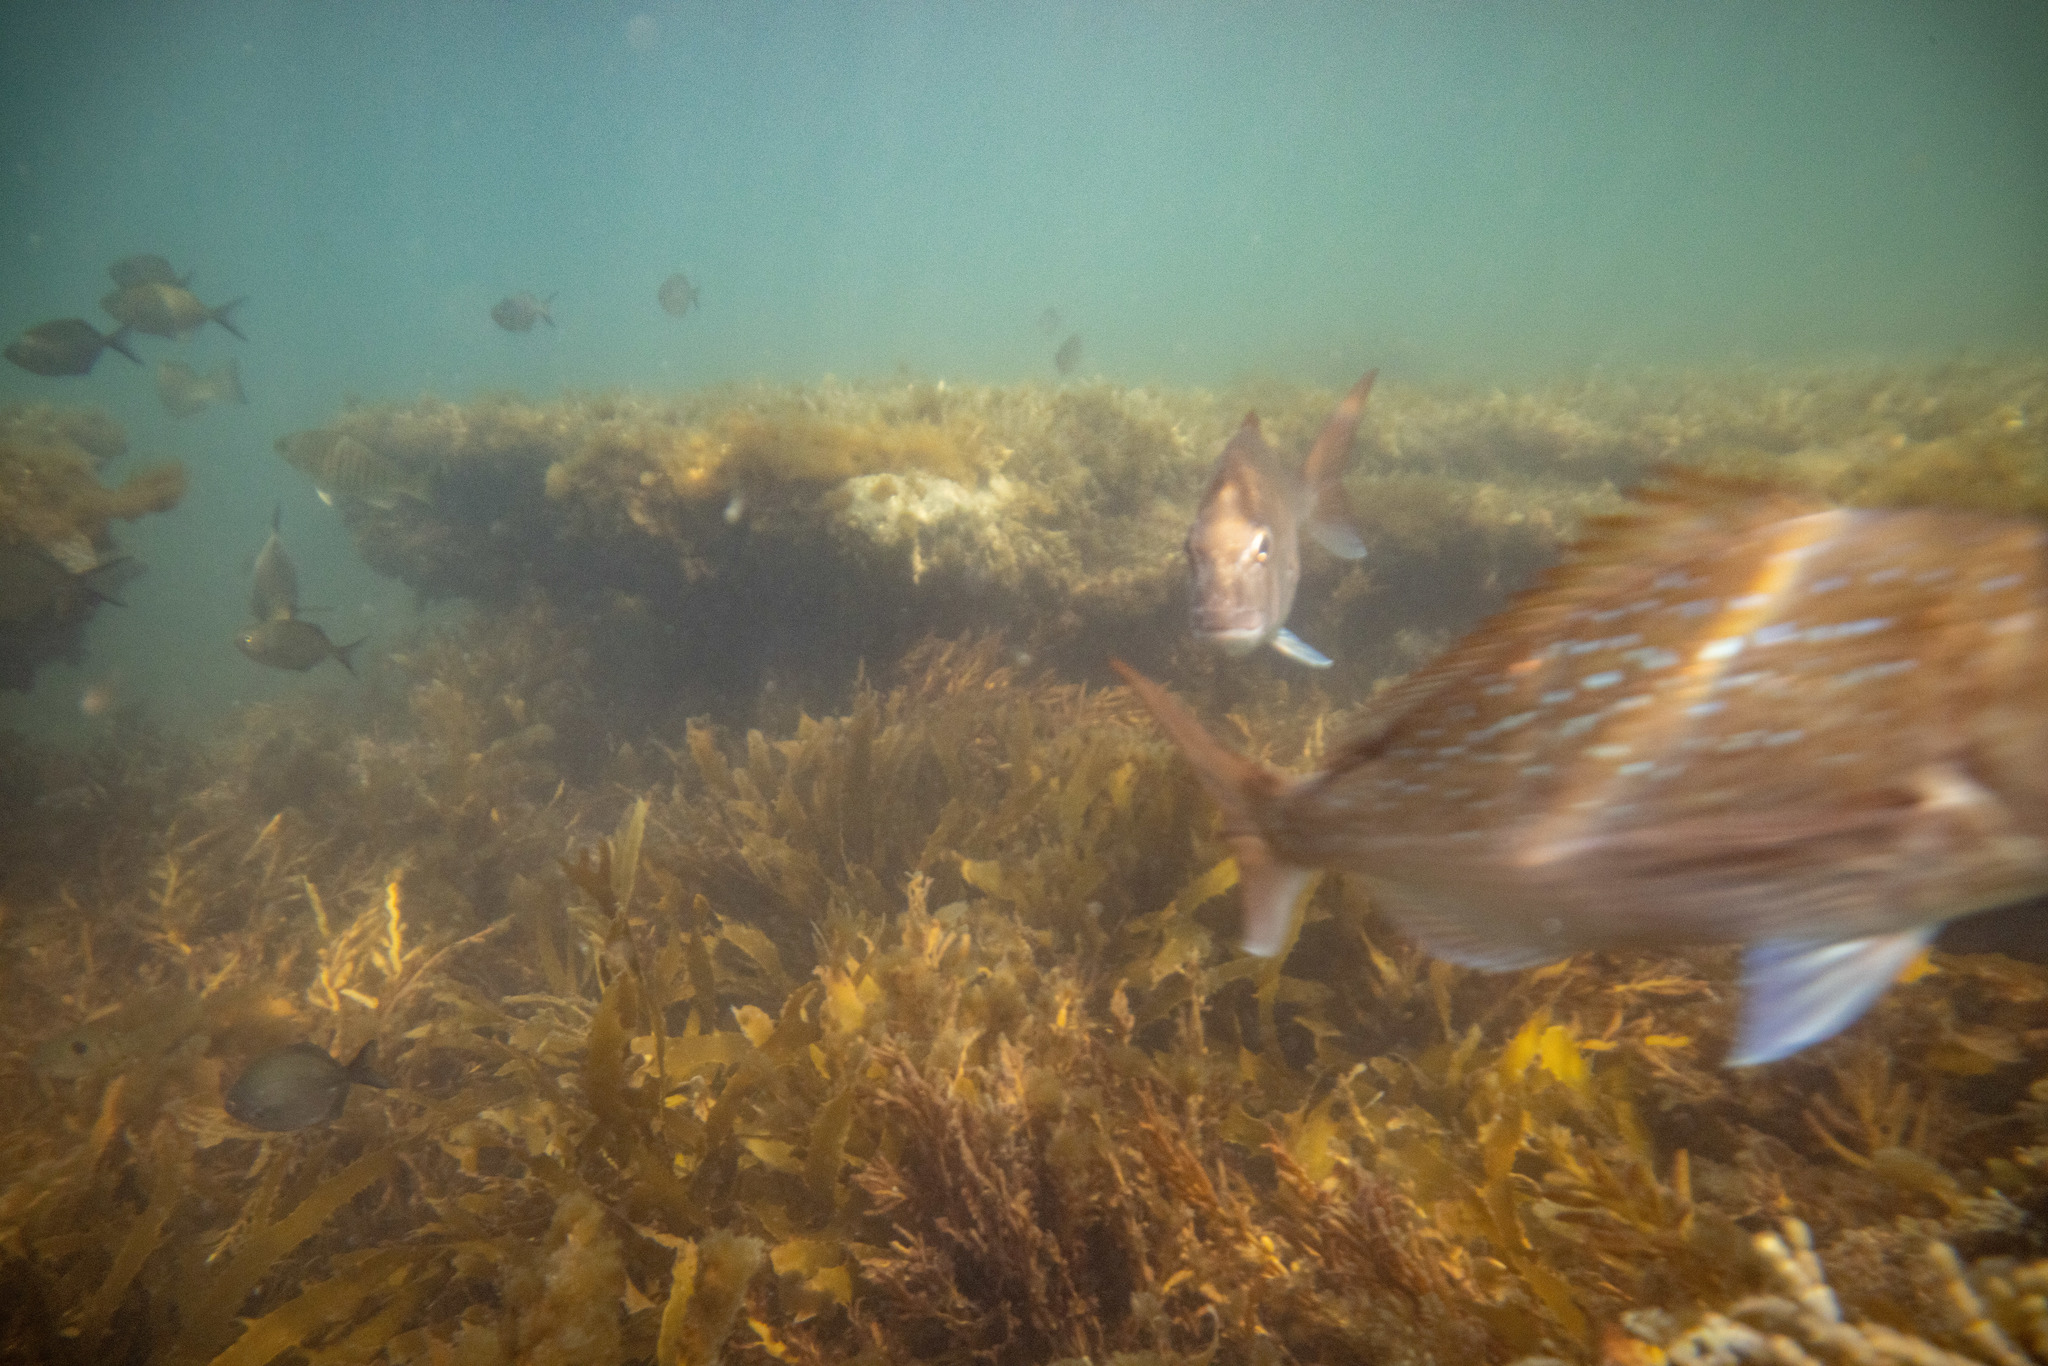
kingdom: Animalia
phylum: Chordata
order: Perciformes
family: Sparidae
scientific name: Sparidae
